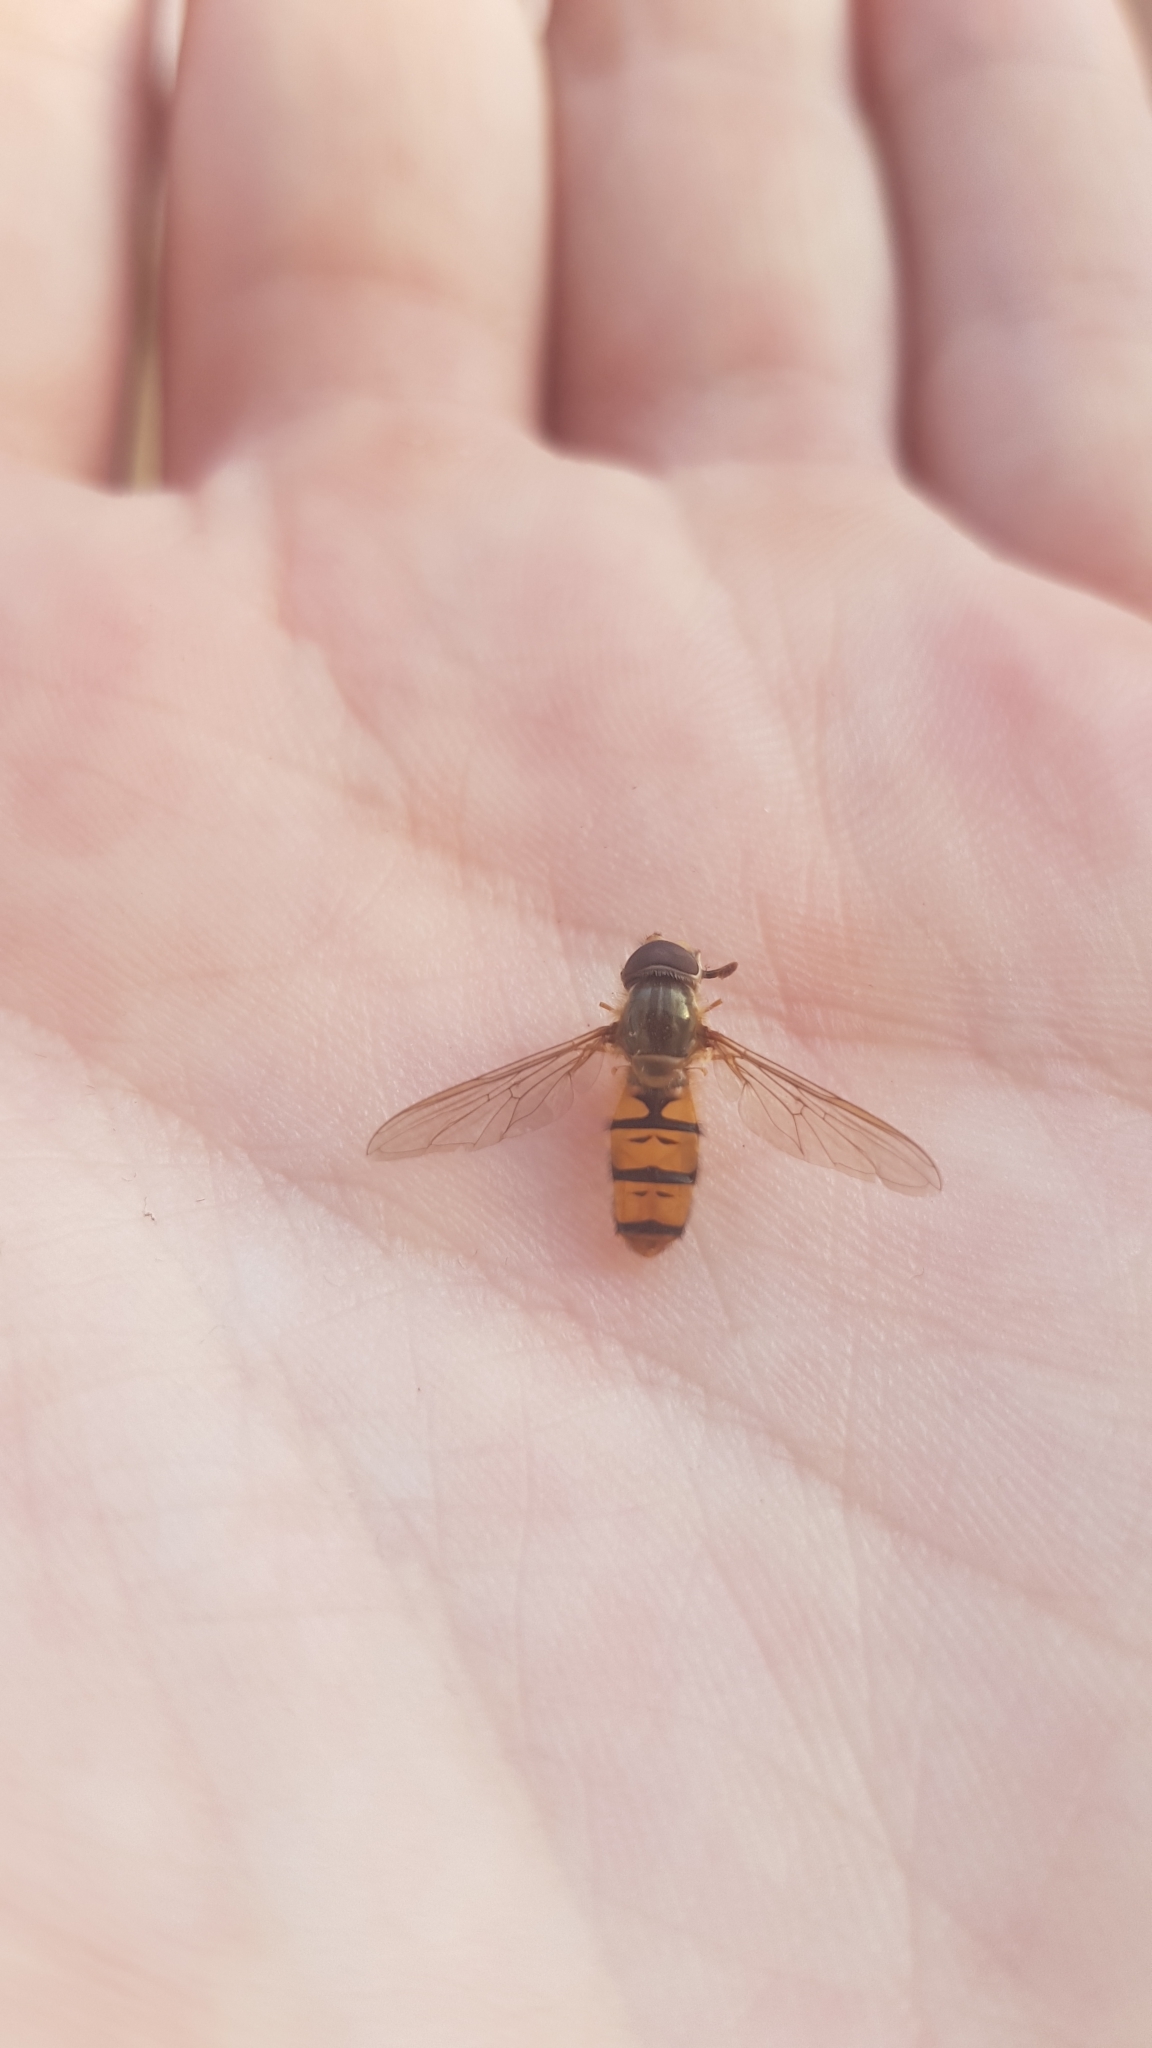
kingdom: Animalia
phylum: Arthropoda
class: Insecta
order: Diptera
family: Syrphidae
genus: Episyrphus
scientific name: Episyrphus balteatus
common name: Marmalade hoverfly
